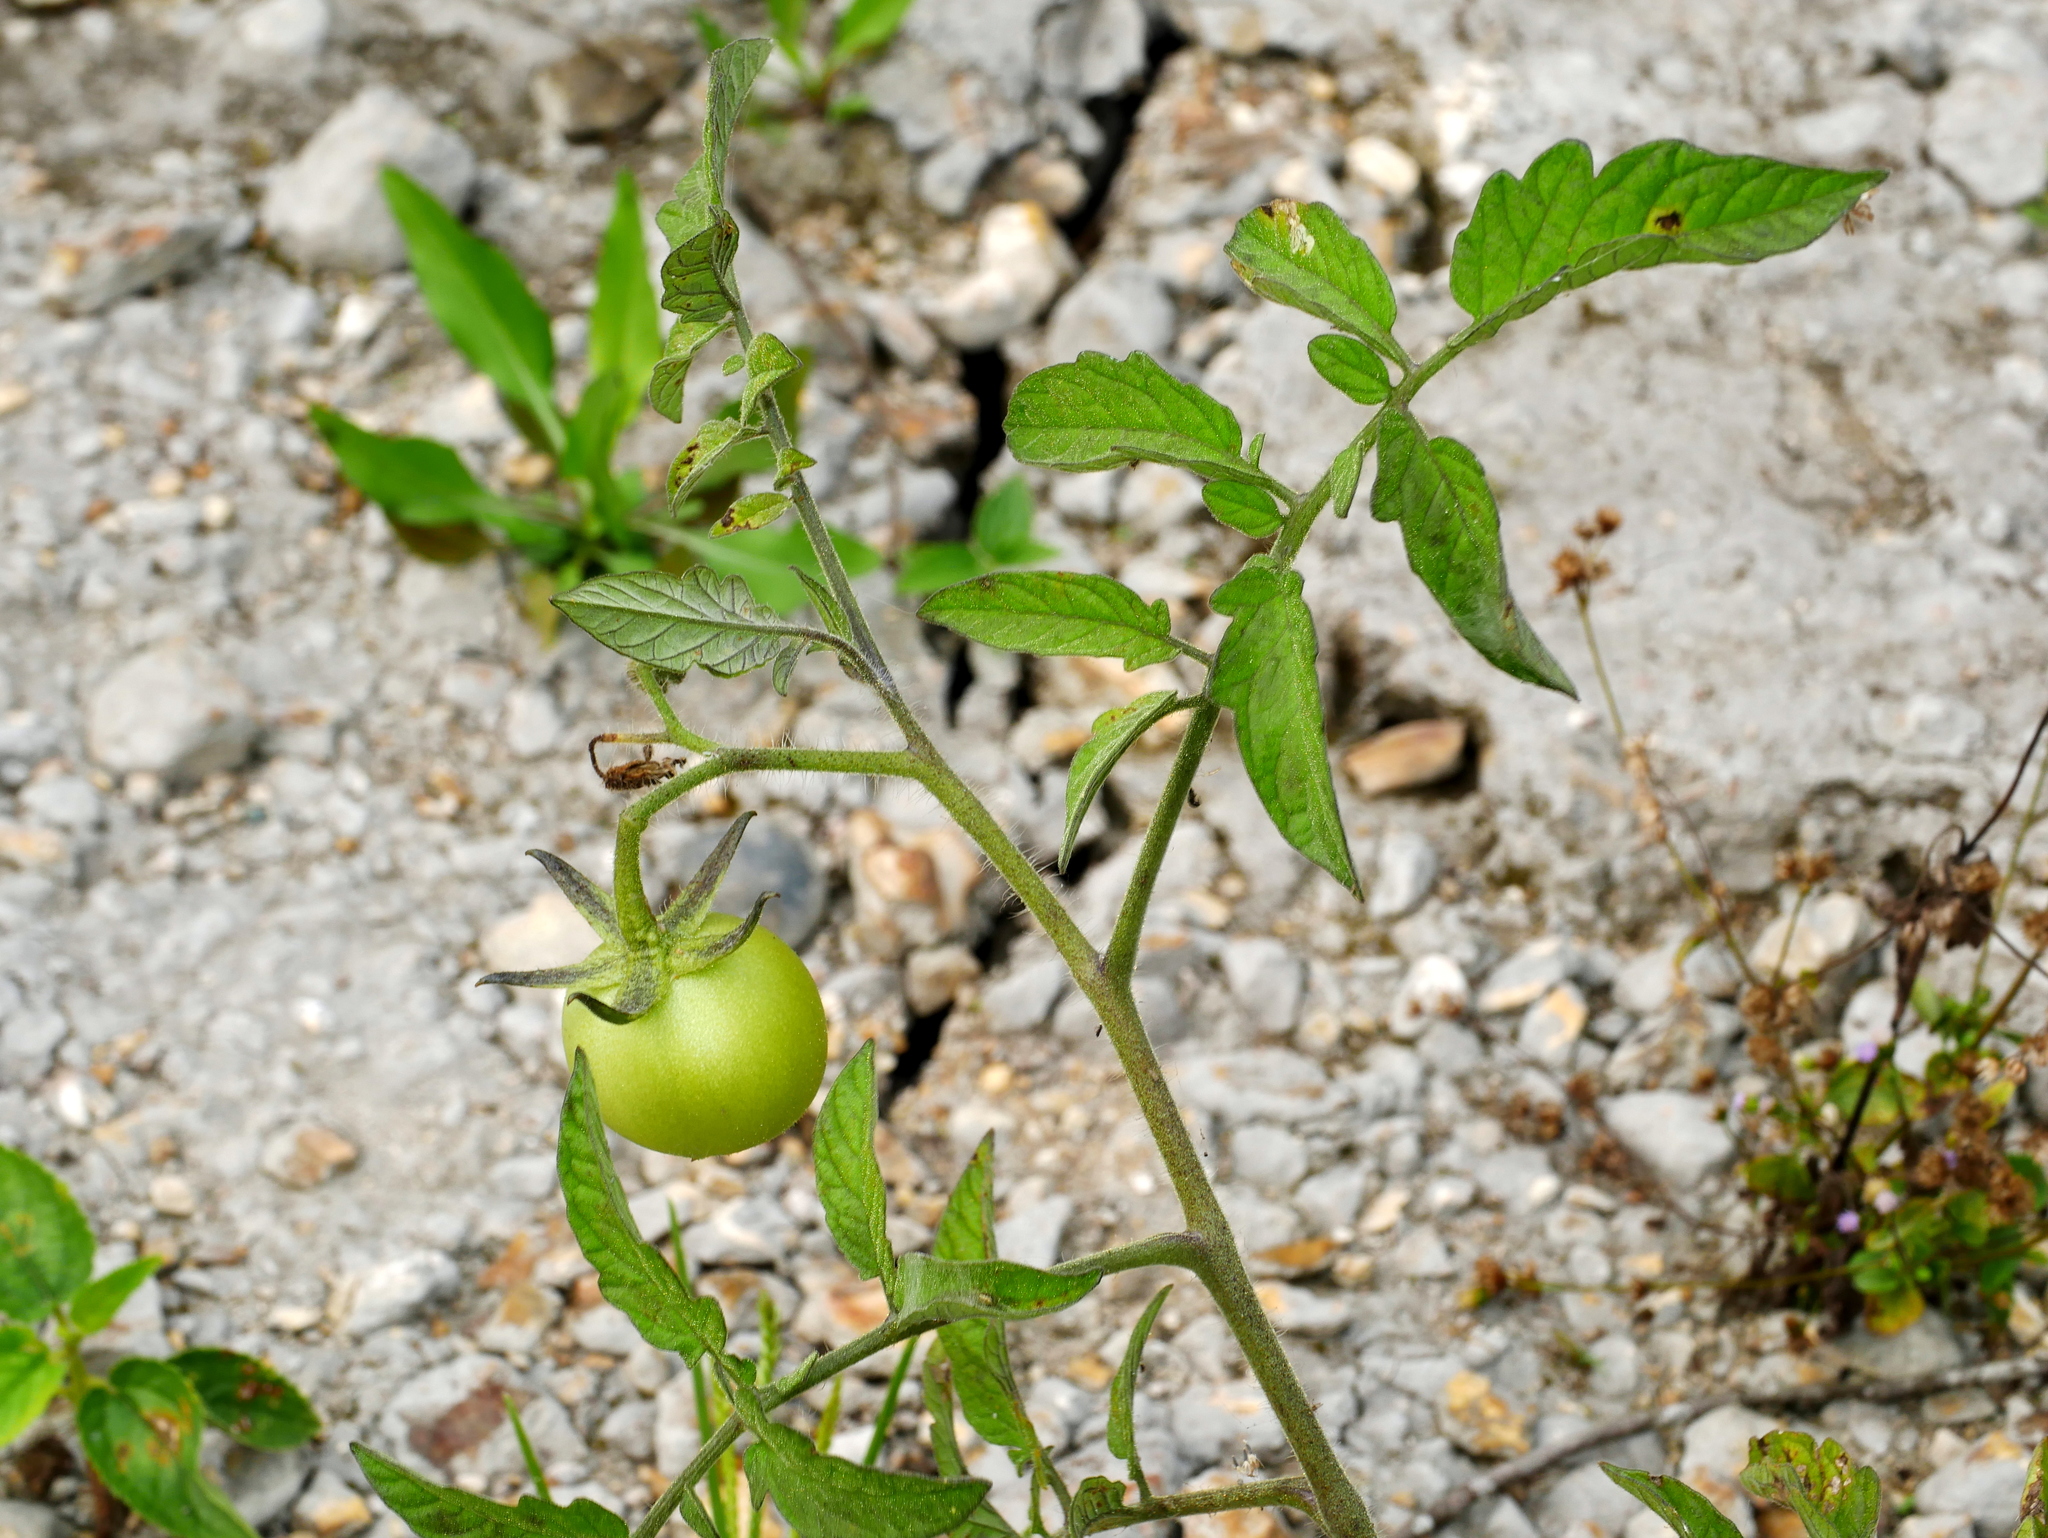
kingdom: Plantae
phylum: Tracheophyta
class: Magnoliopsida
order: Solanales
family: Solanaceae
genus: Solanum
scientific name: Solanum lycopersicum
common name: Garden tomato
